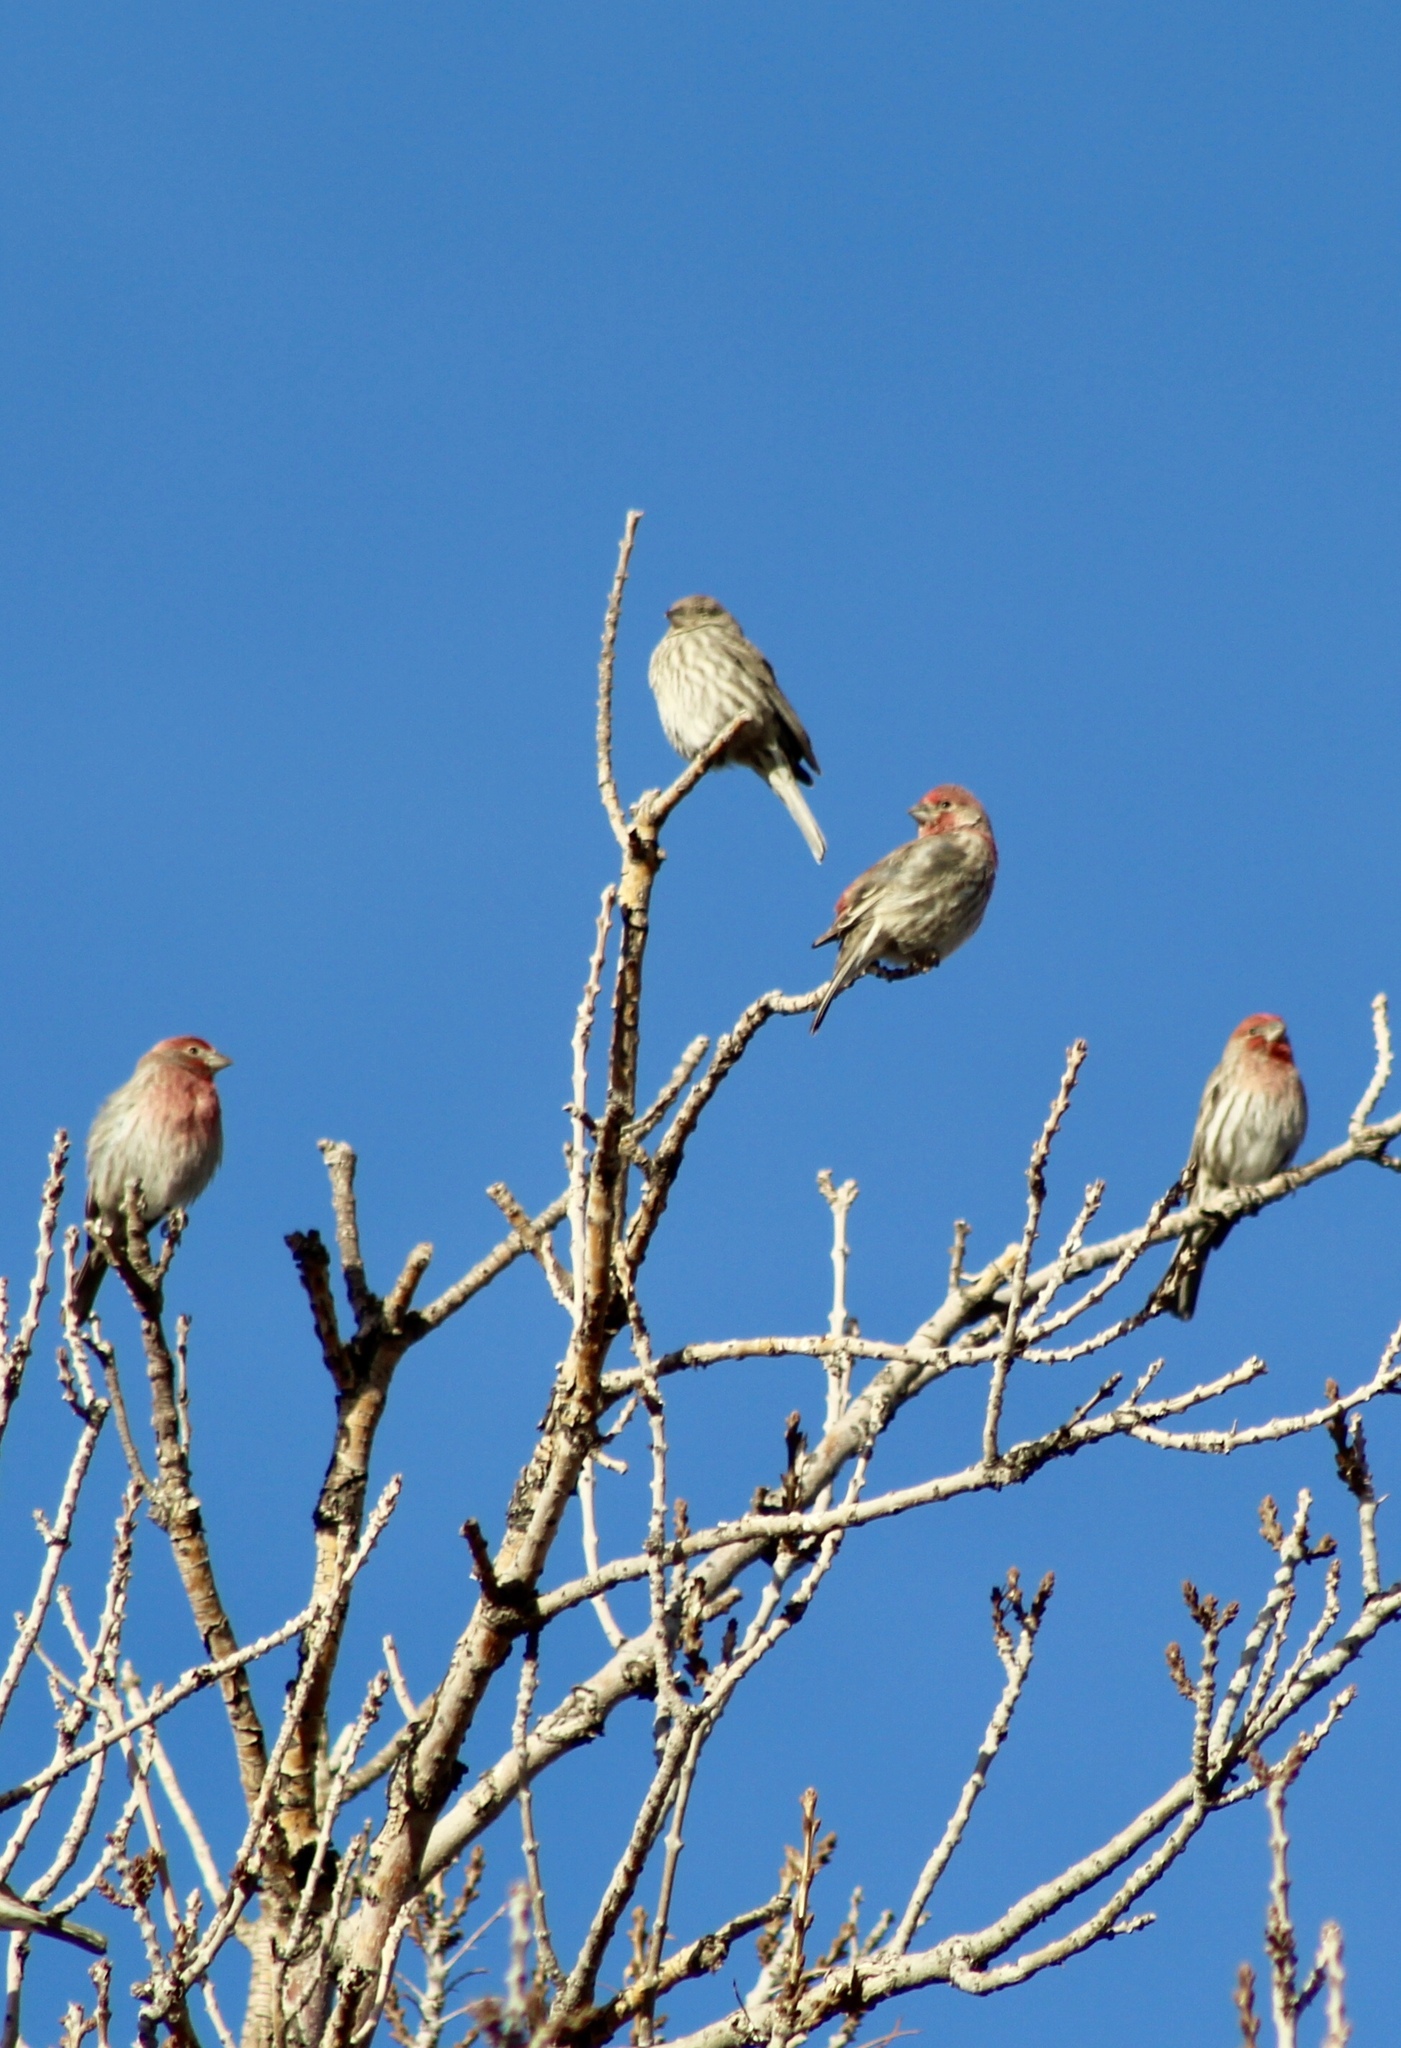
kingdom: Animalia
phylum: Chordata
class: Aves
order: Passeriformes
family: Fringillidae
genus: Haemorhous
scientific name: Haemorhous mexicanus
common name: House finch
